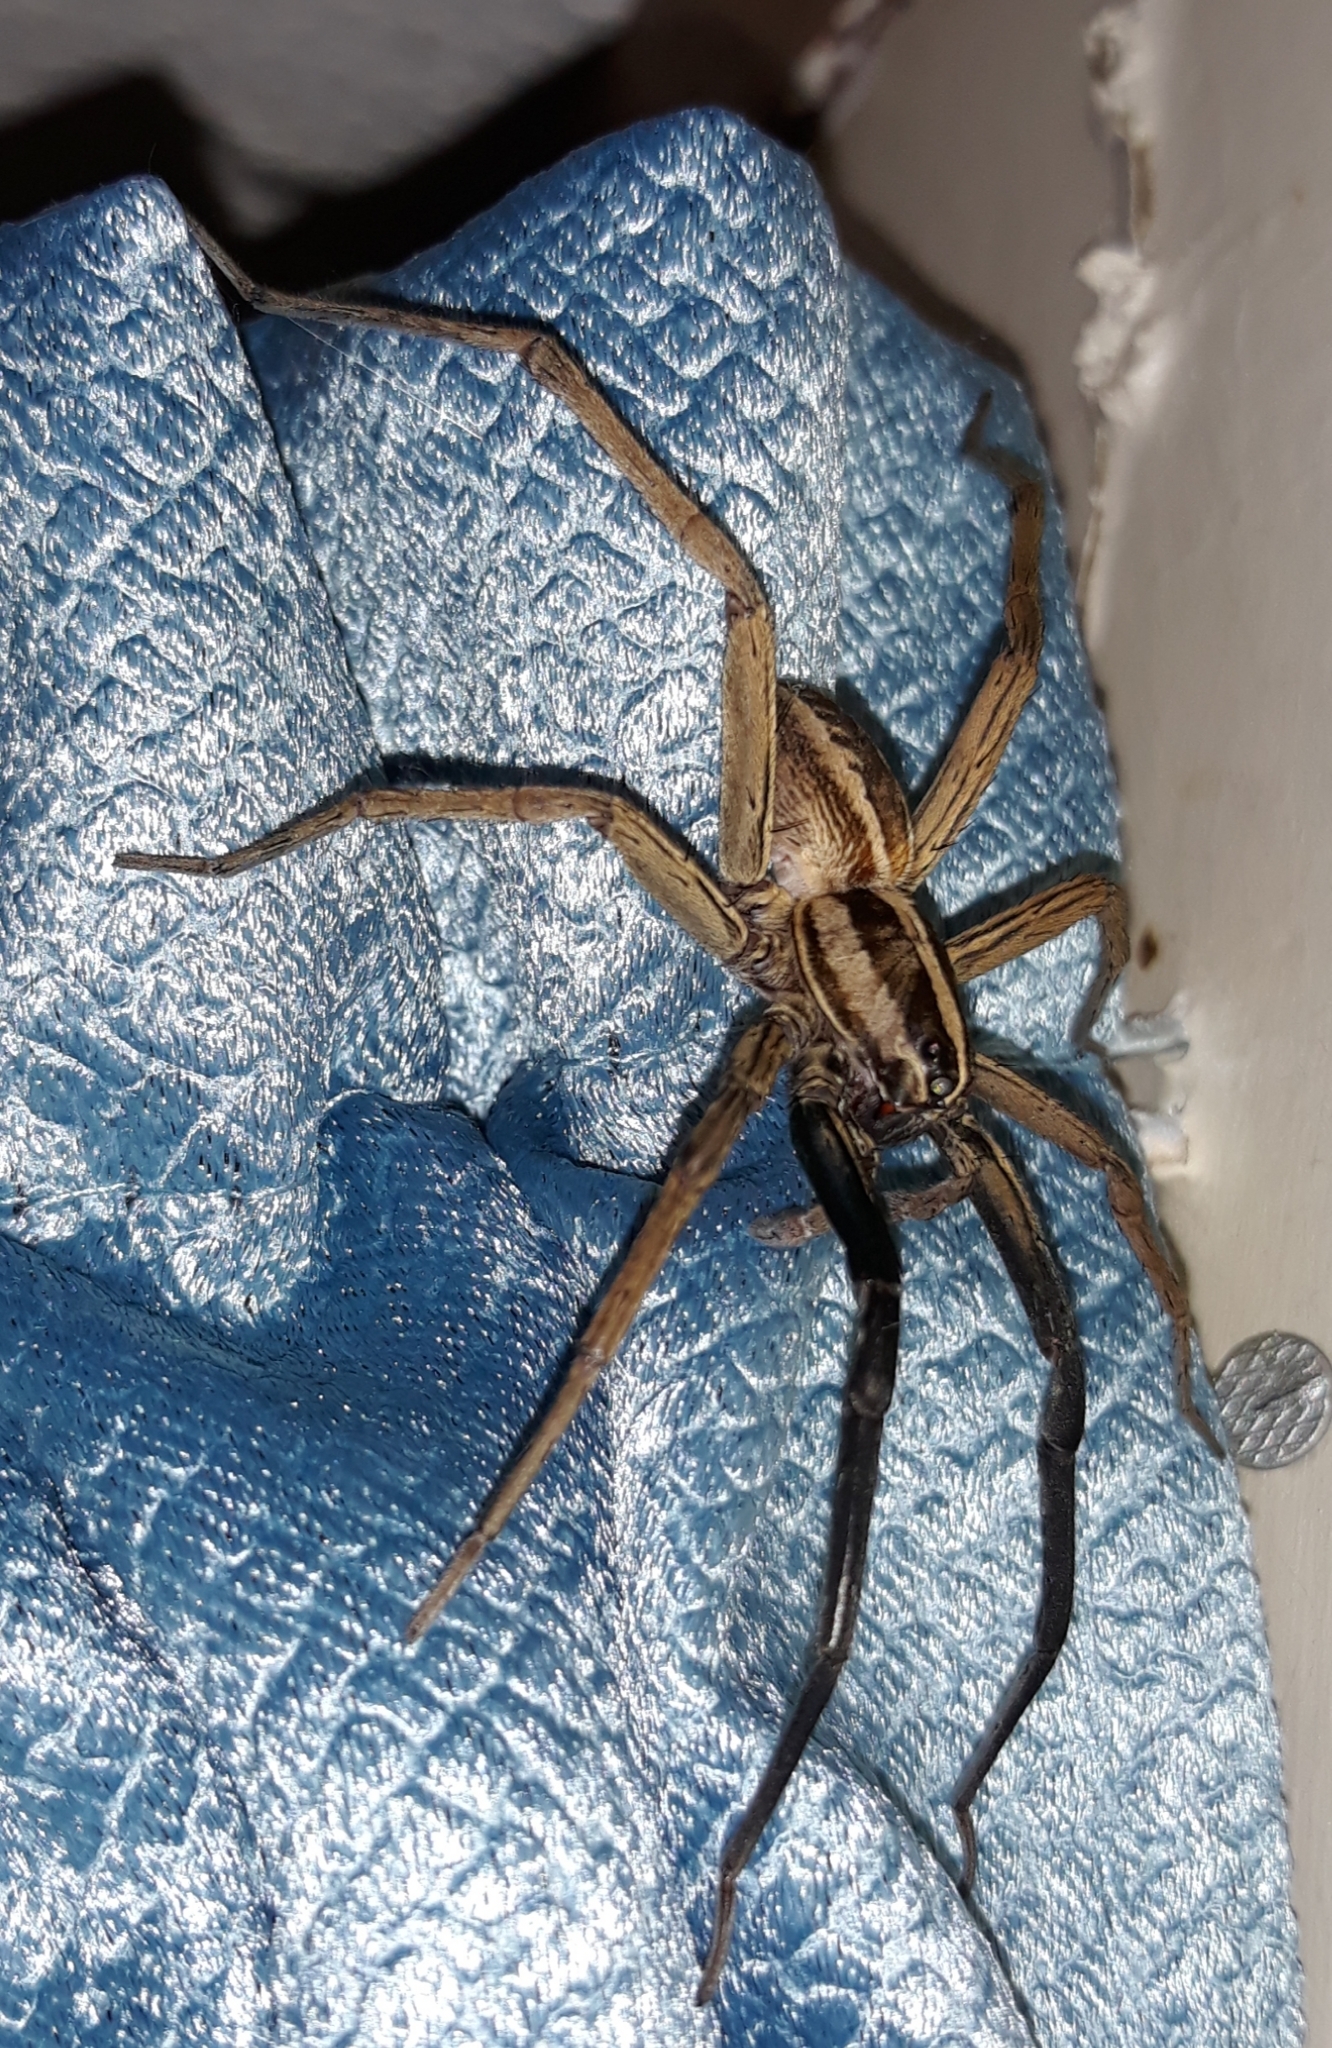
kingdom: Animalia
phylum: Arthropoda
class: Arachnida
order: Araneae
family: Lycosidae
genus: Rabidosa
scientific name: Rabidosa rabida
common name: Rabid wolf spider
